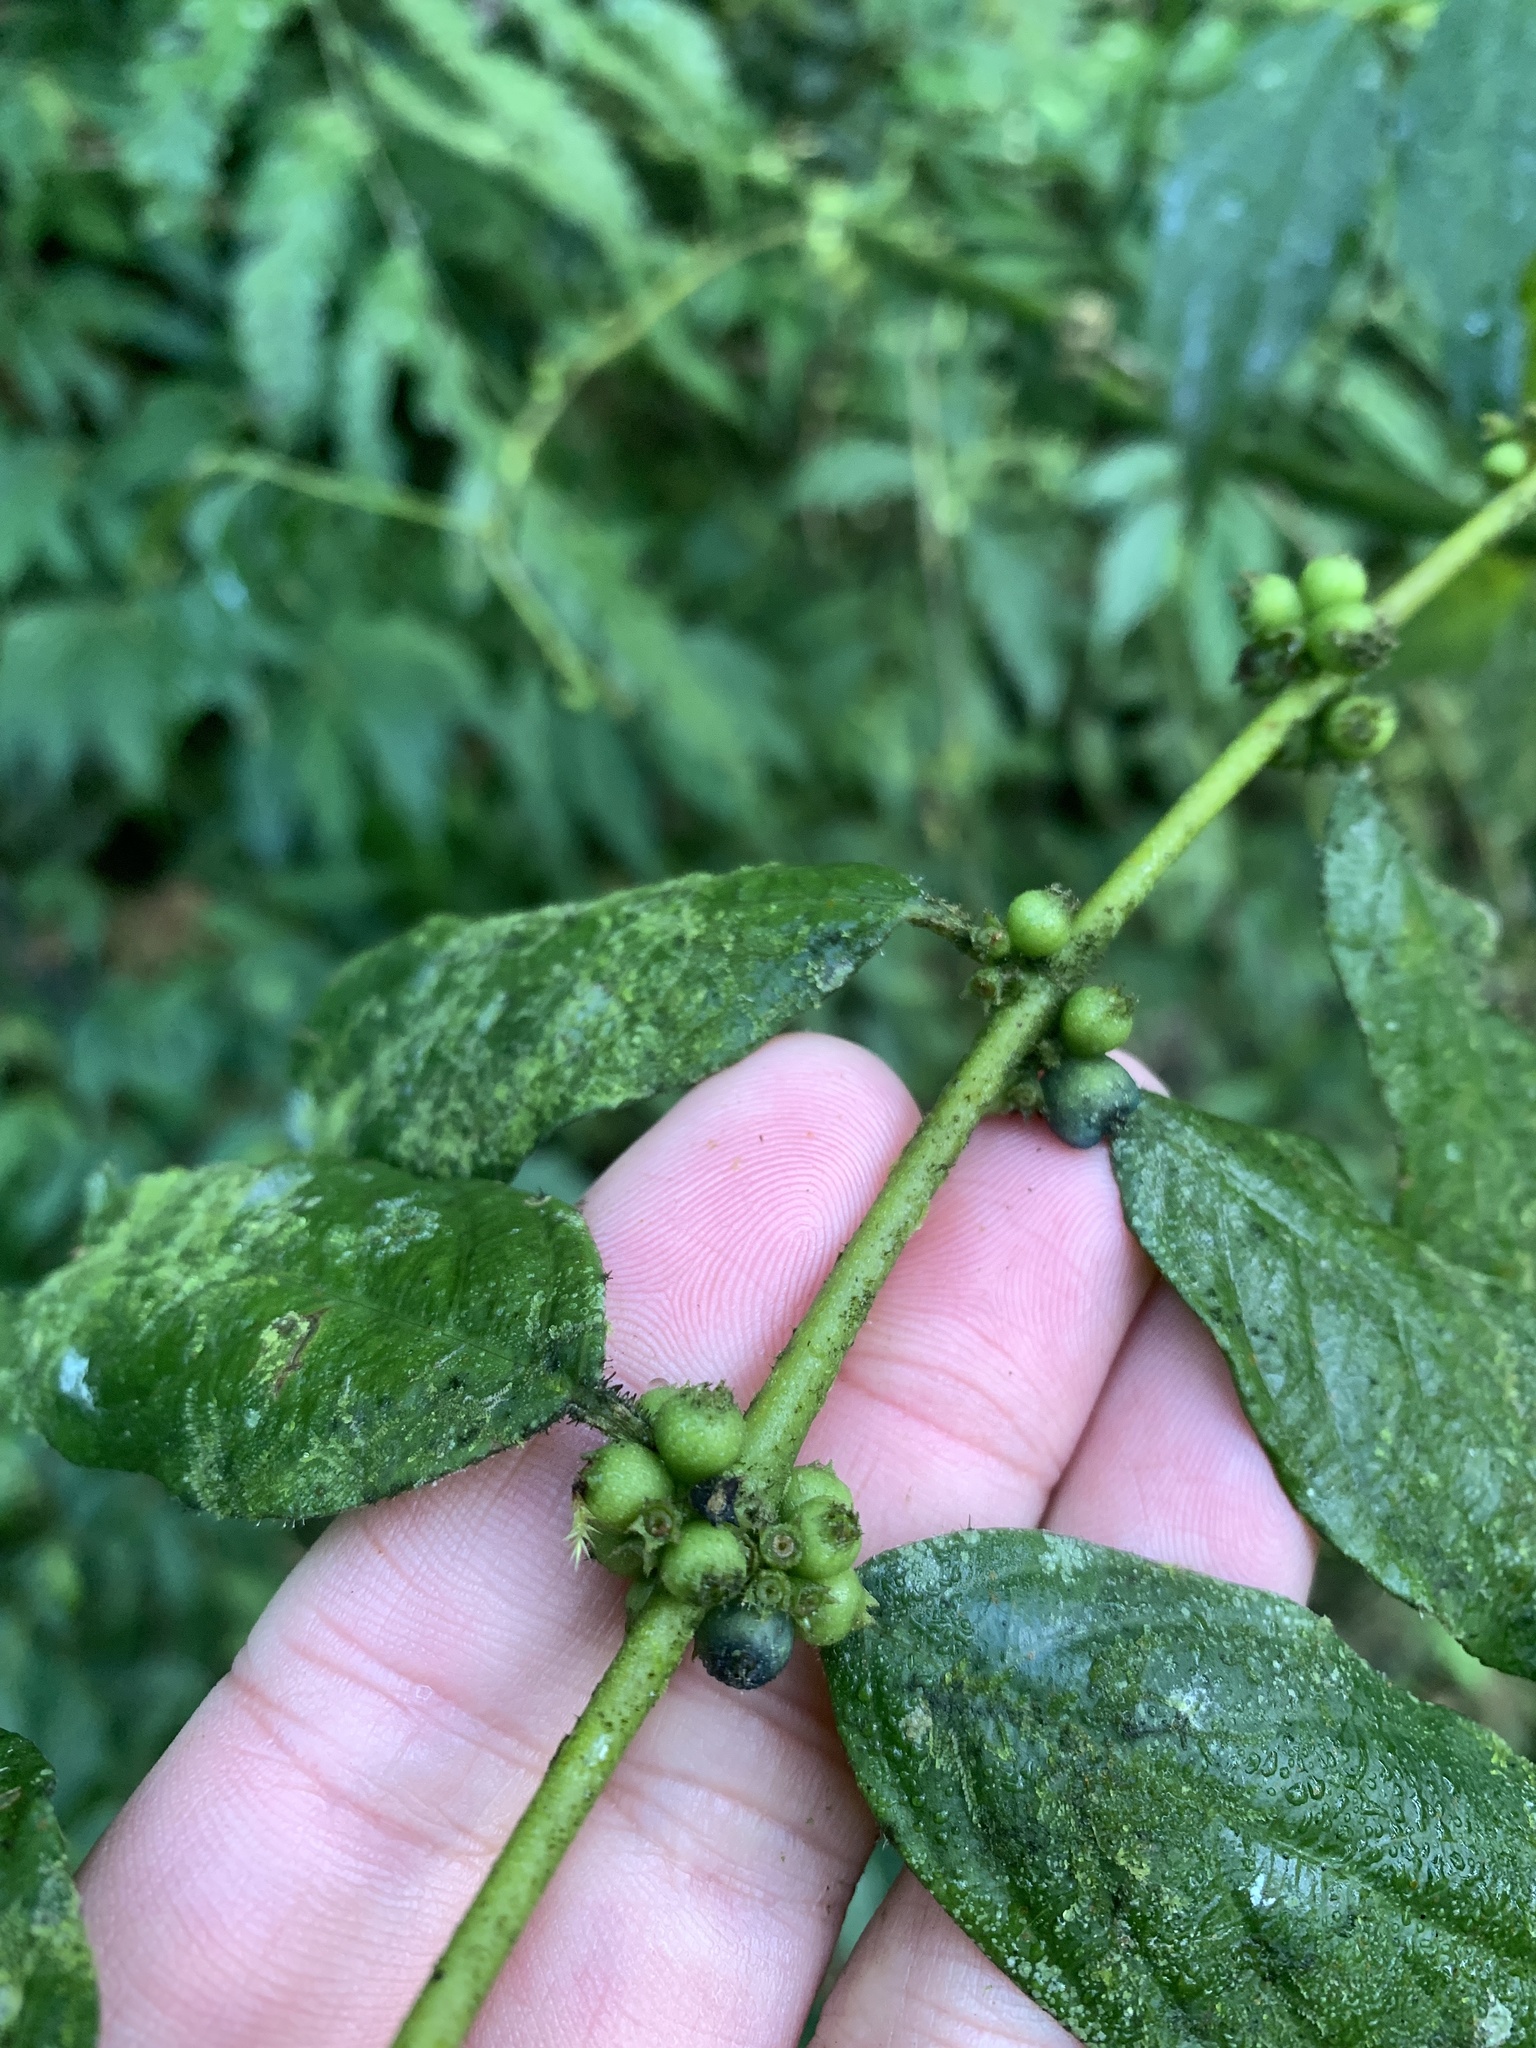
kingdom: Plantae
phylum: Tracheophyta
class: Magnoliopsida
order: Gentianales
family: Rubiaceae
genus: Lasianthus
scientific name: Lasianthus micranthus
